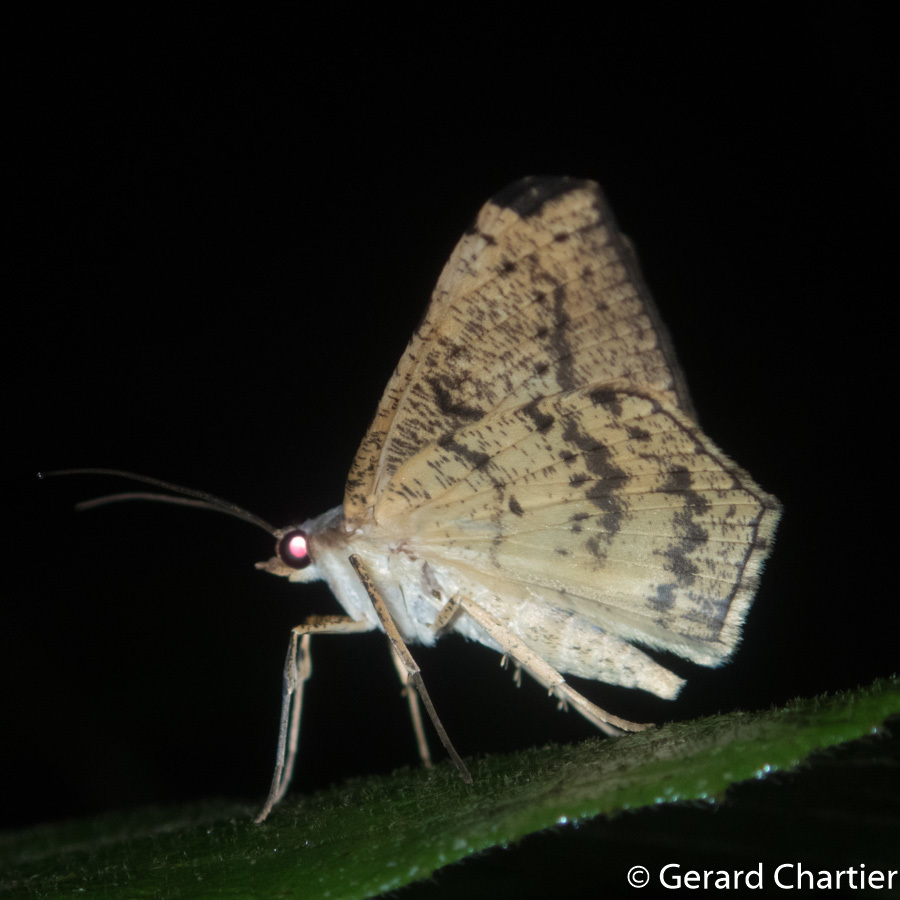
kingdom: Animalia
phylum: Arthropoda
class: Insecta
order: Lepidoptera
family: Geometridae
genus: Probithia
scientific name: Probithia exclusa
